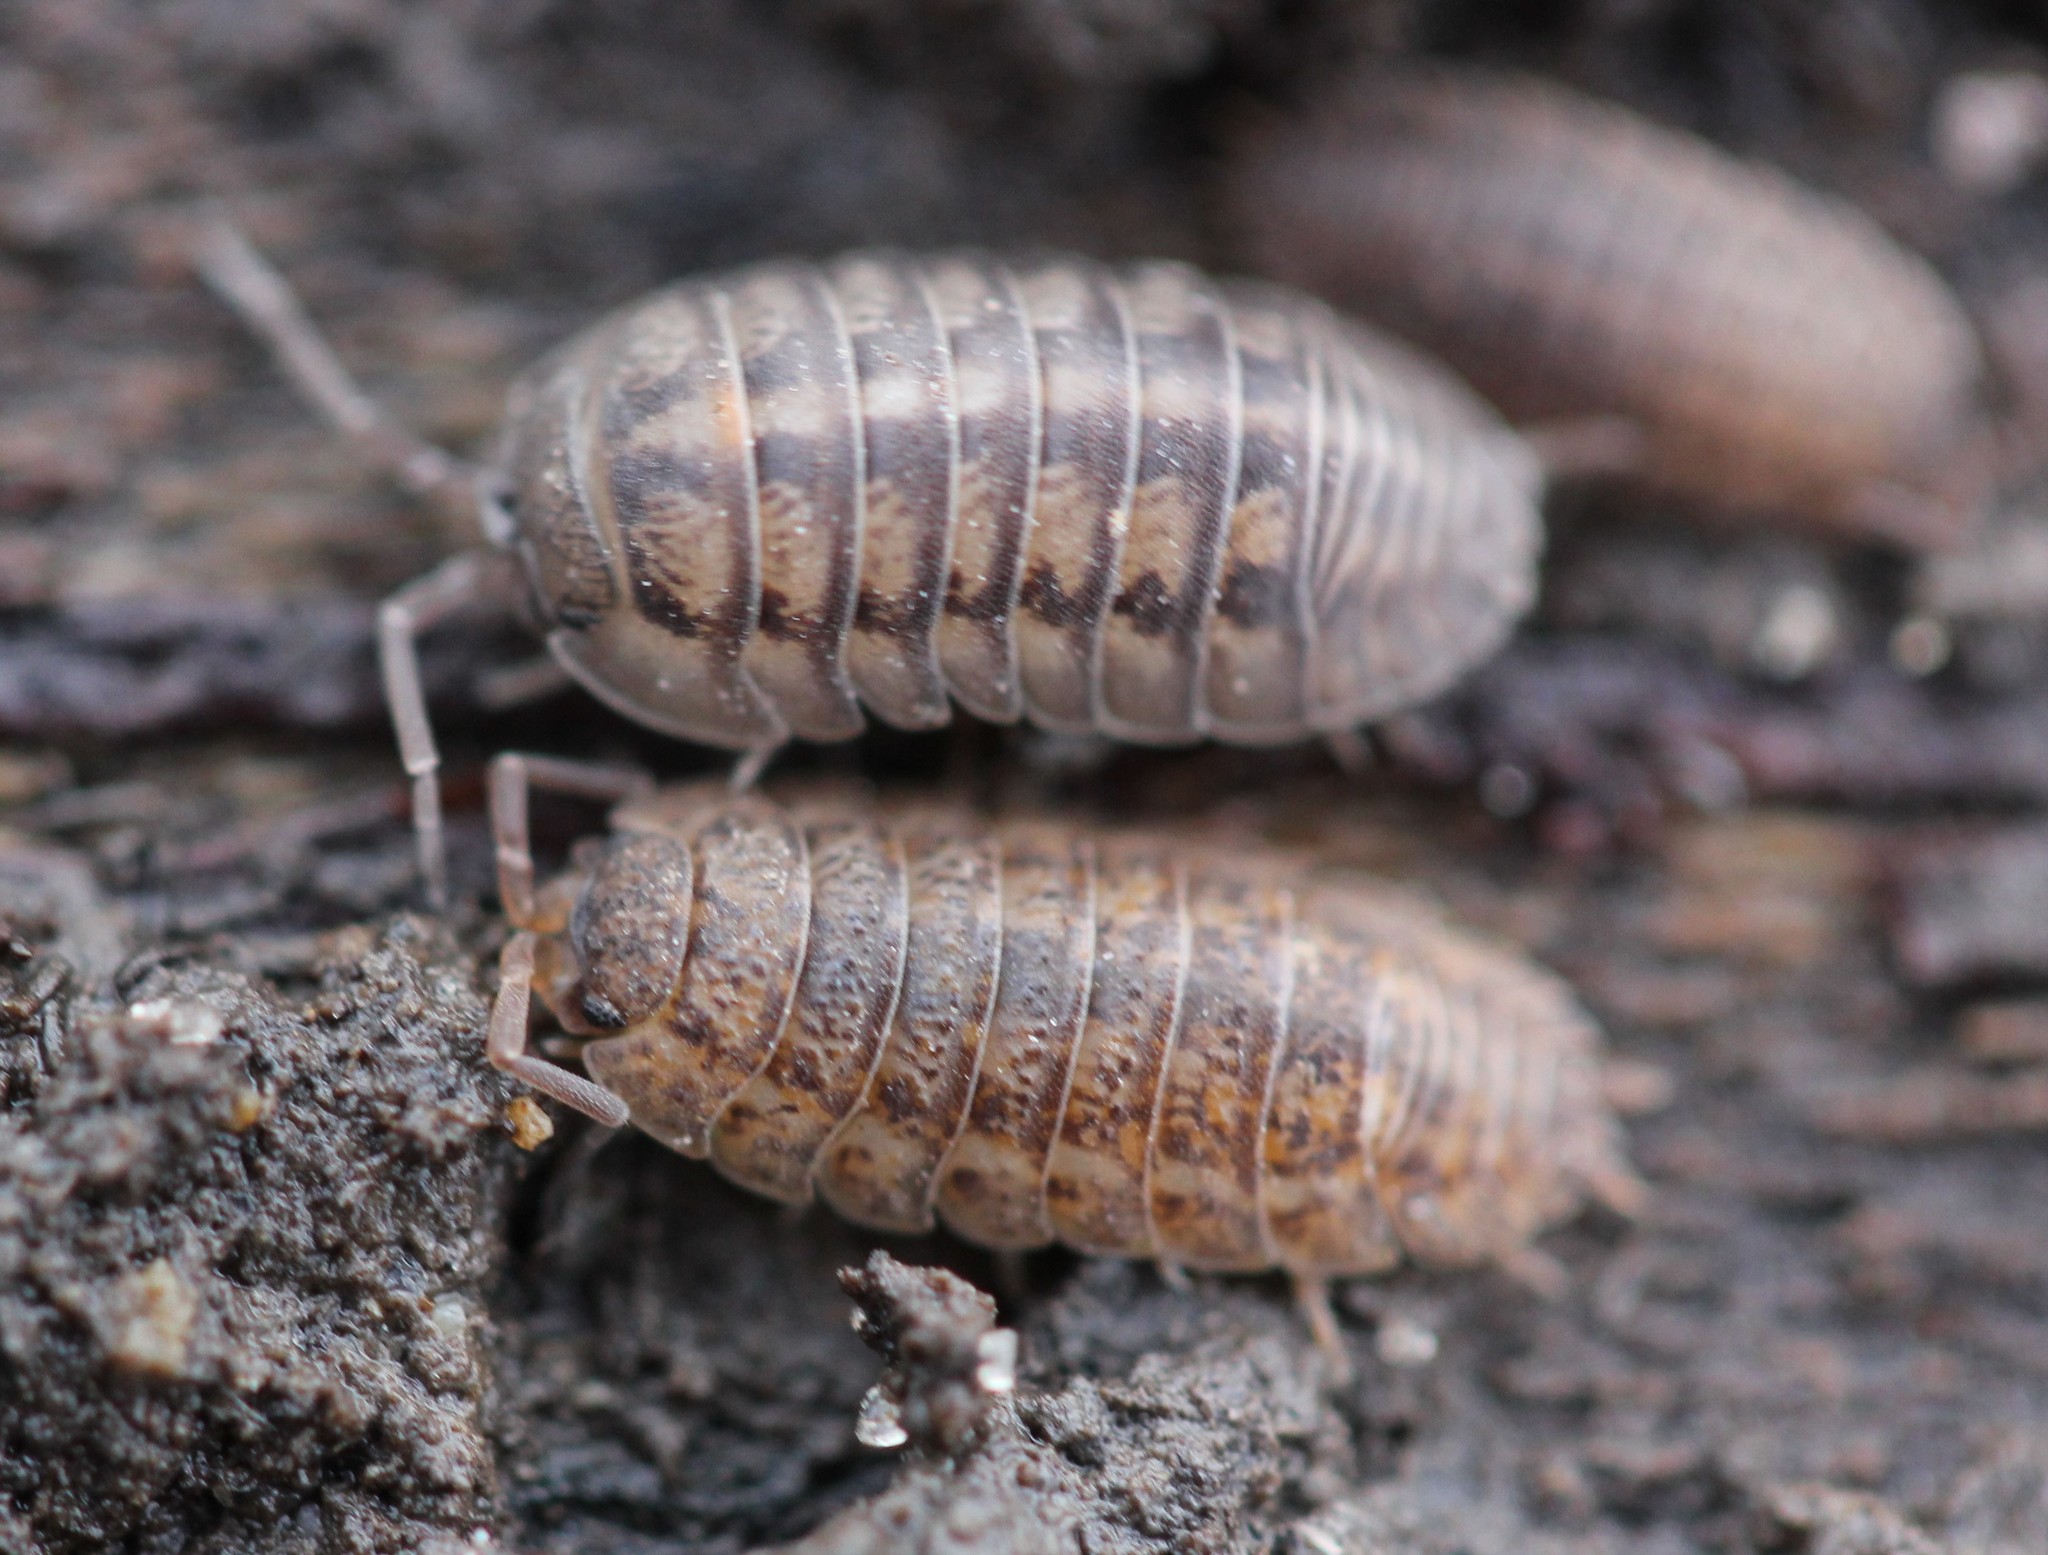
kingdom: Animalia
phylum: Arthropoda
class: Malacostraca
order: Isopoda
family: Trachelipodidae
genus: Trachelipus
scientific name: Trachelipus rathkii
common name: Isopod
